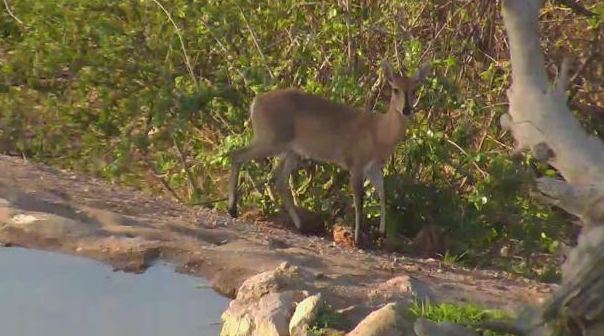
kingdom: Animalia
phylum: Chordata
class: Mammalia
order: Artiodactyla
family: Bovidae
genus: Sylvicapra
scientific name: Sylvicapra grimmia
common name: Bush duiker
